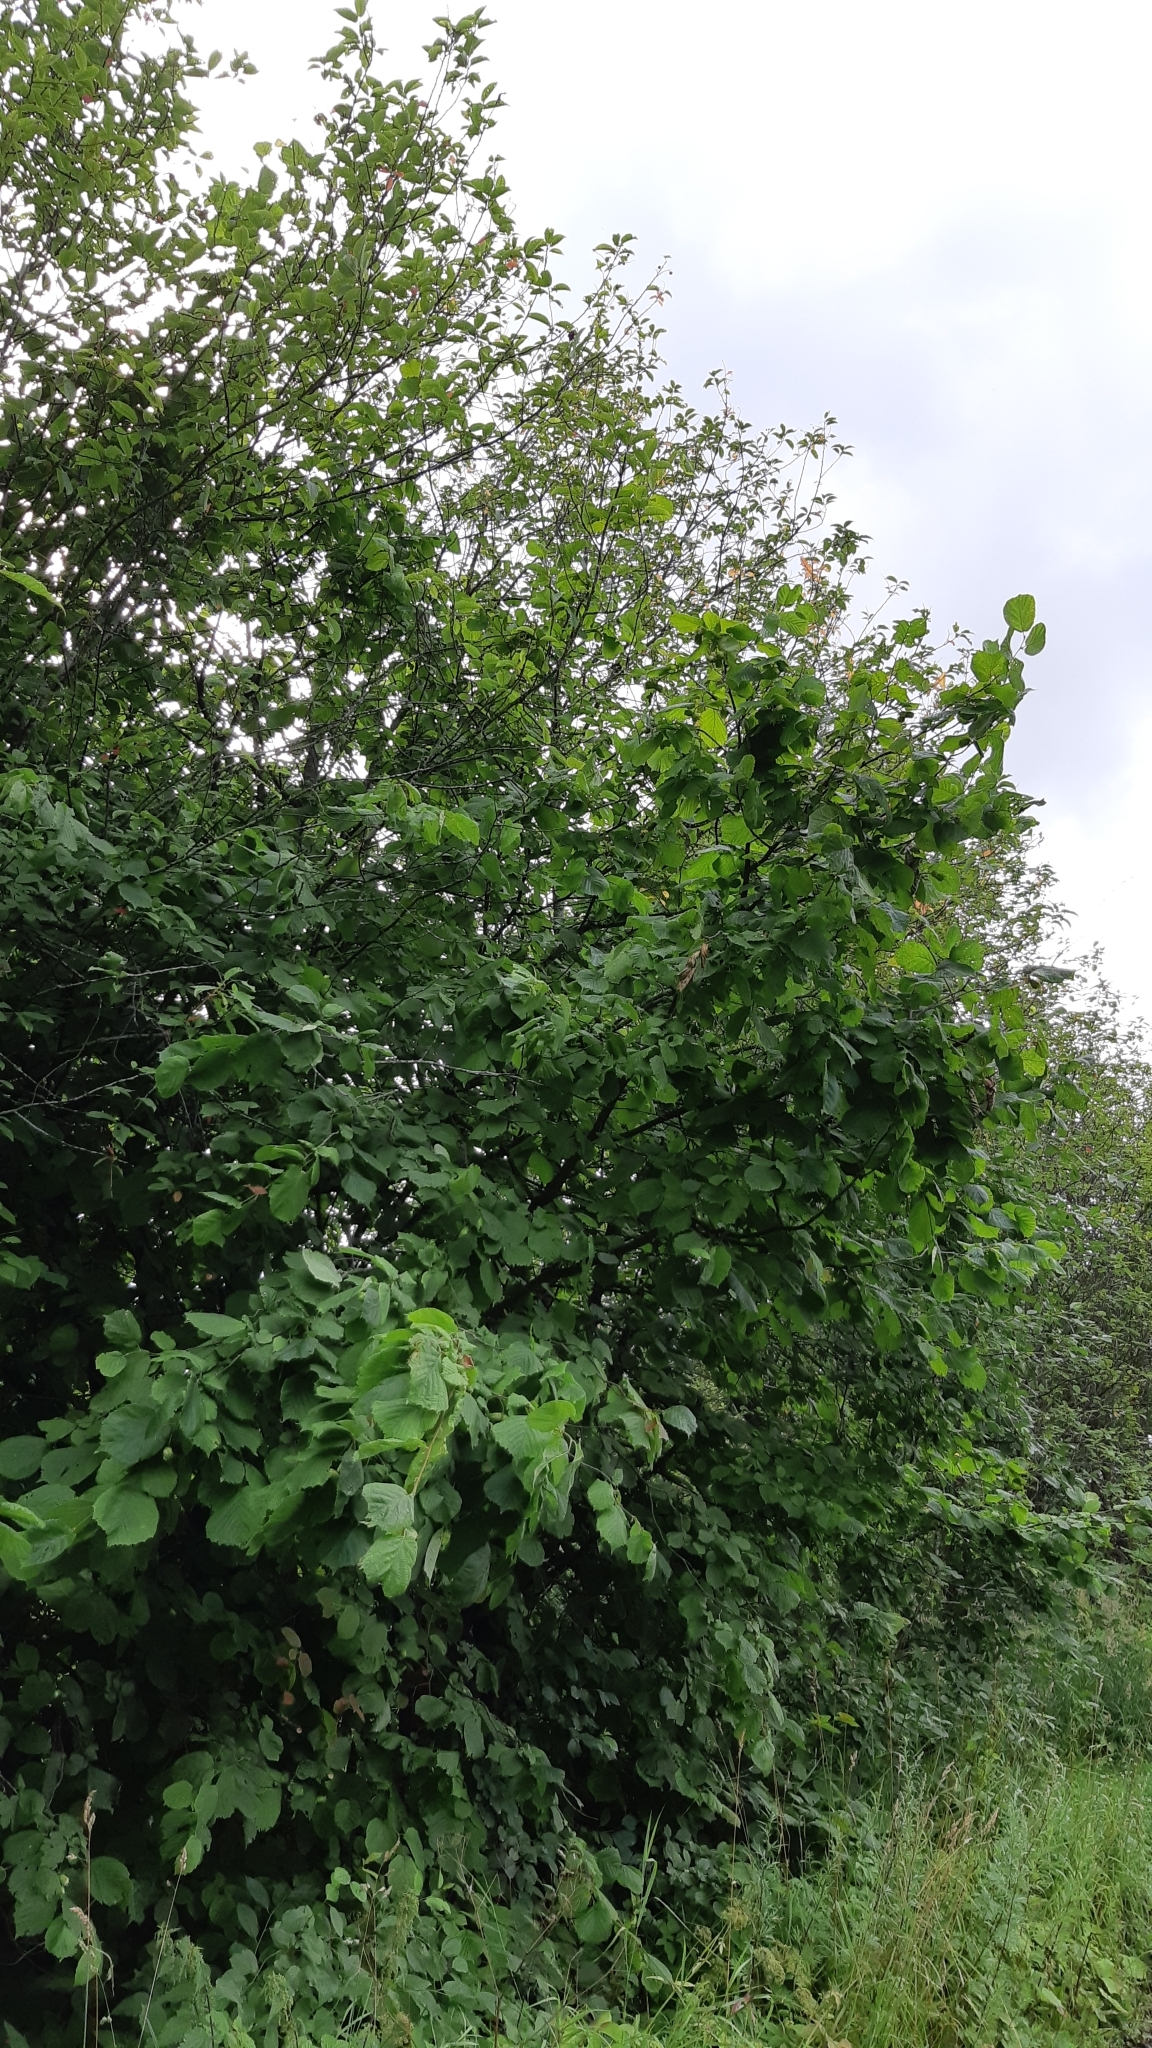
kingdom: Plantae
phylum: Tracheophyta
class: Magnoliopsida
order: Fagales
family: Betulaceae
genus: Corylus
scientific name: Corylus avellana
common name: European hazel
